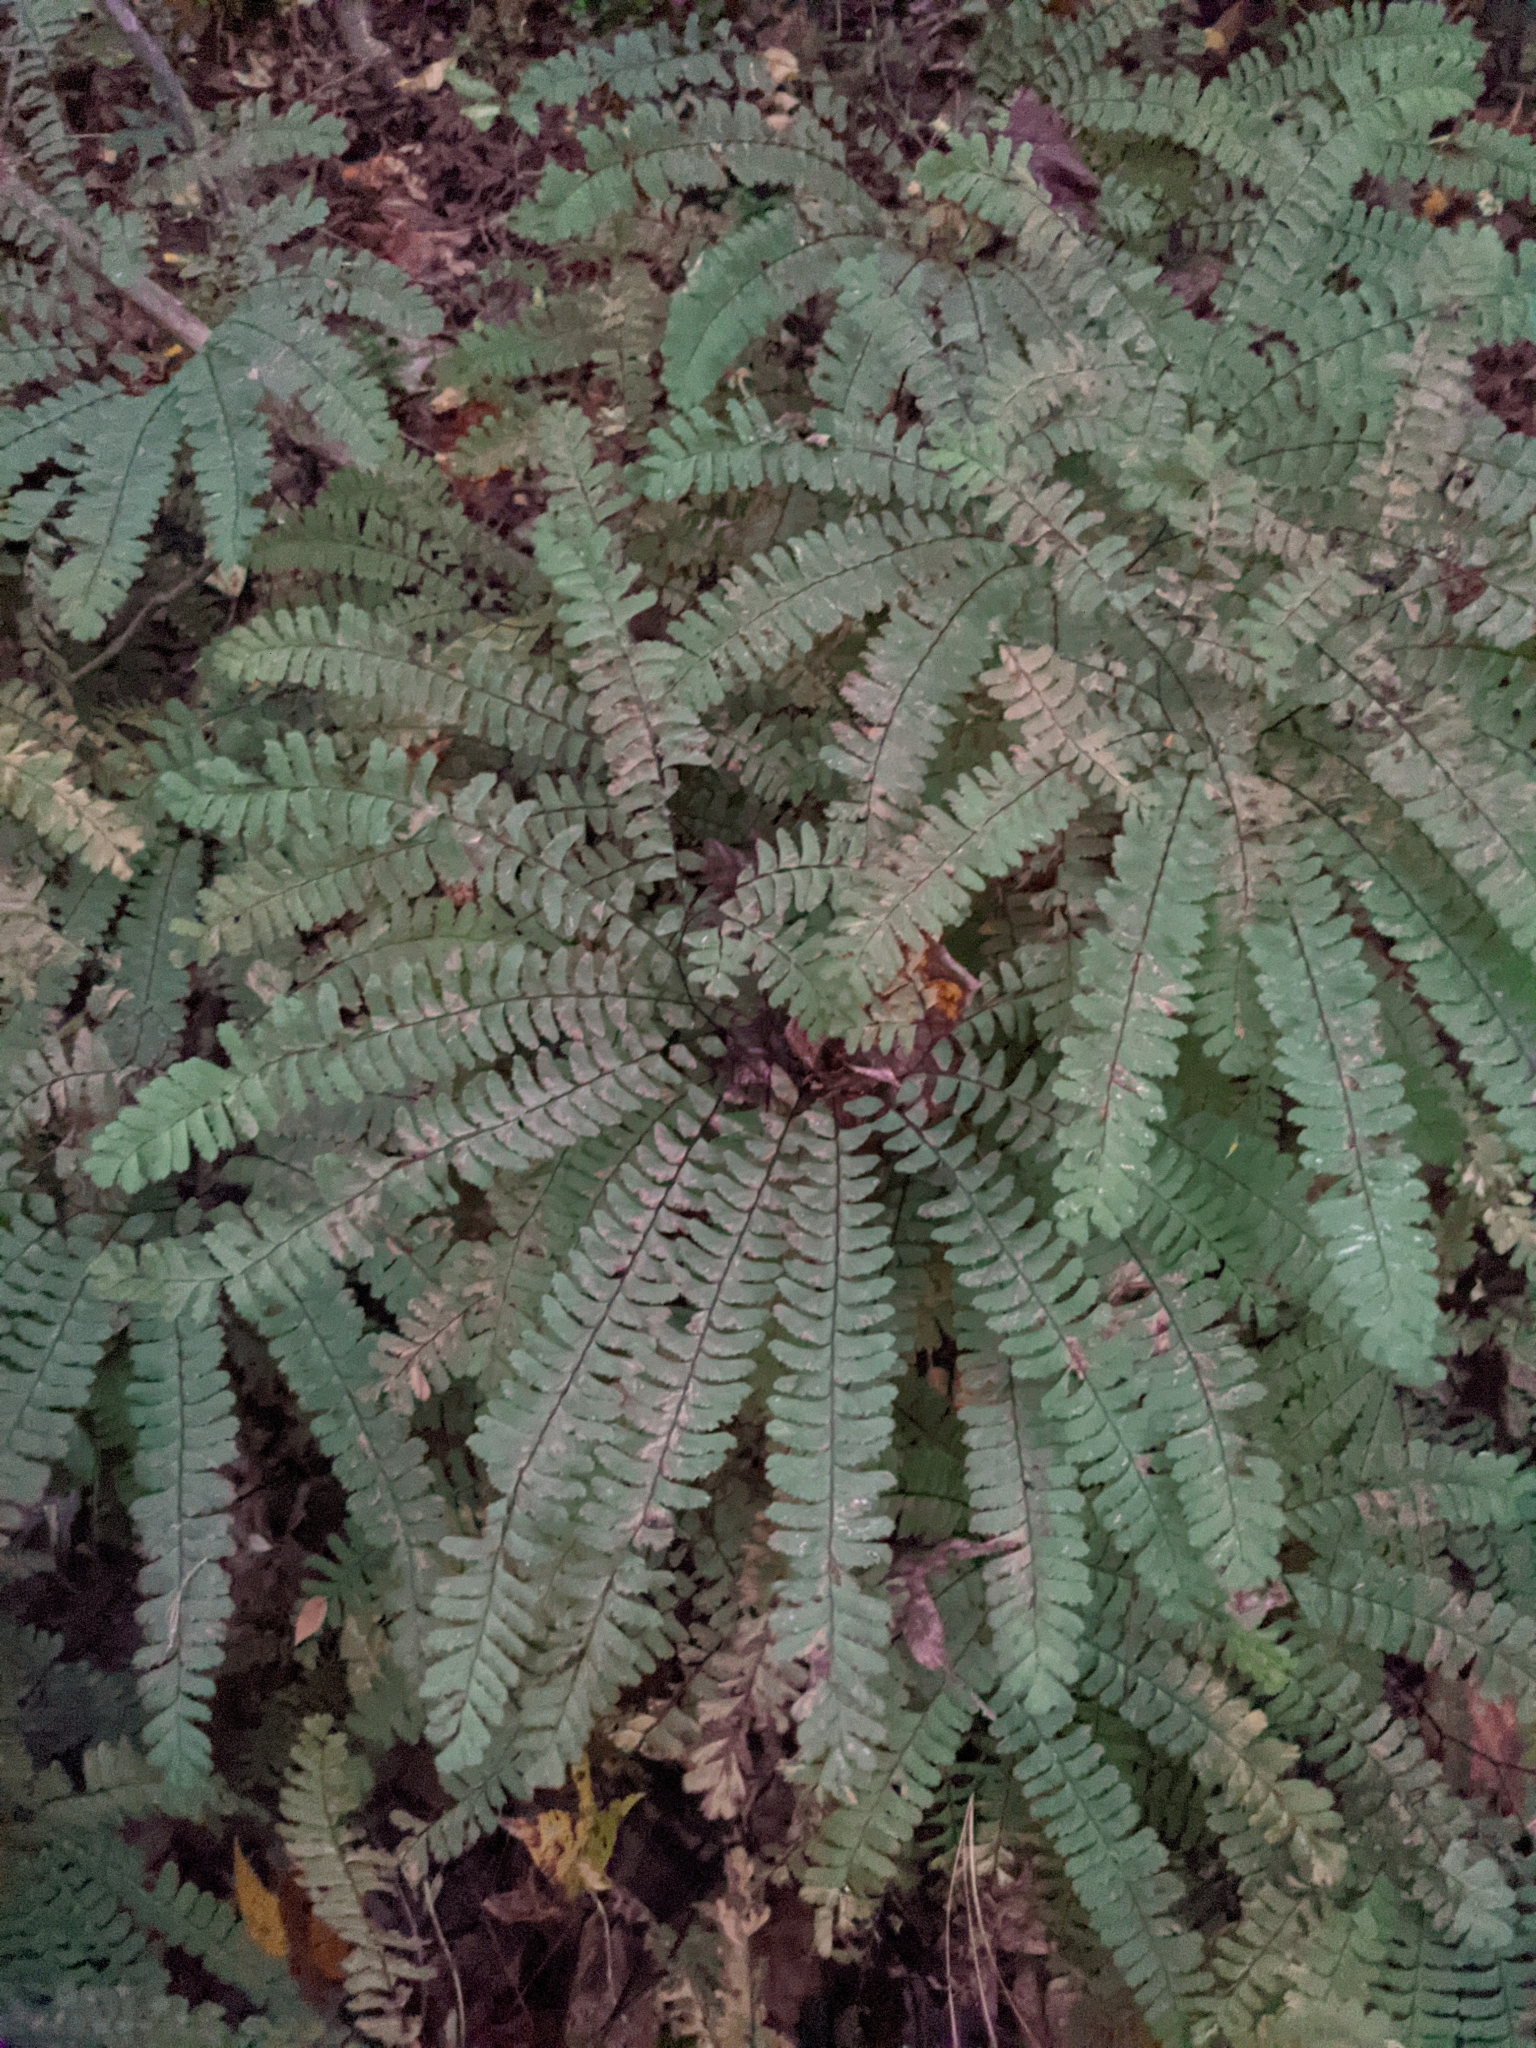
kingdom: Plantae
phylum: Tracheophyta
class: Polypodiopsida
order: Polypodiales
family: Pteridaceae
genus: Adiantum
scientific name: Adiantum pedatum
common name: Five-finger fern
